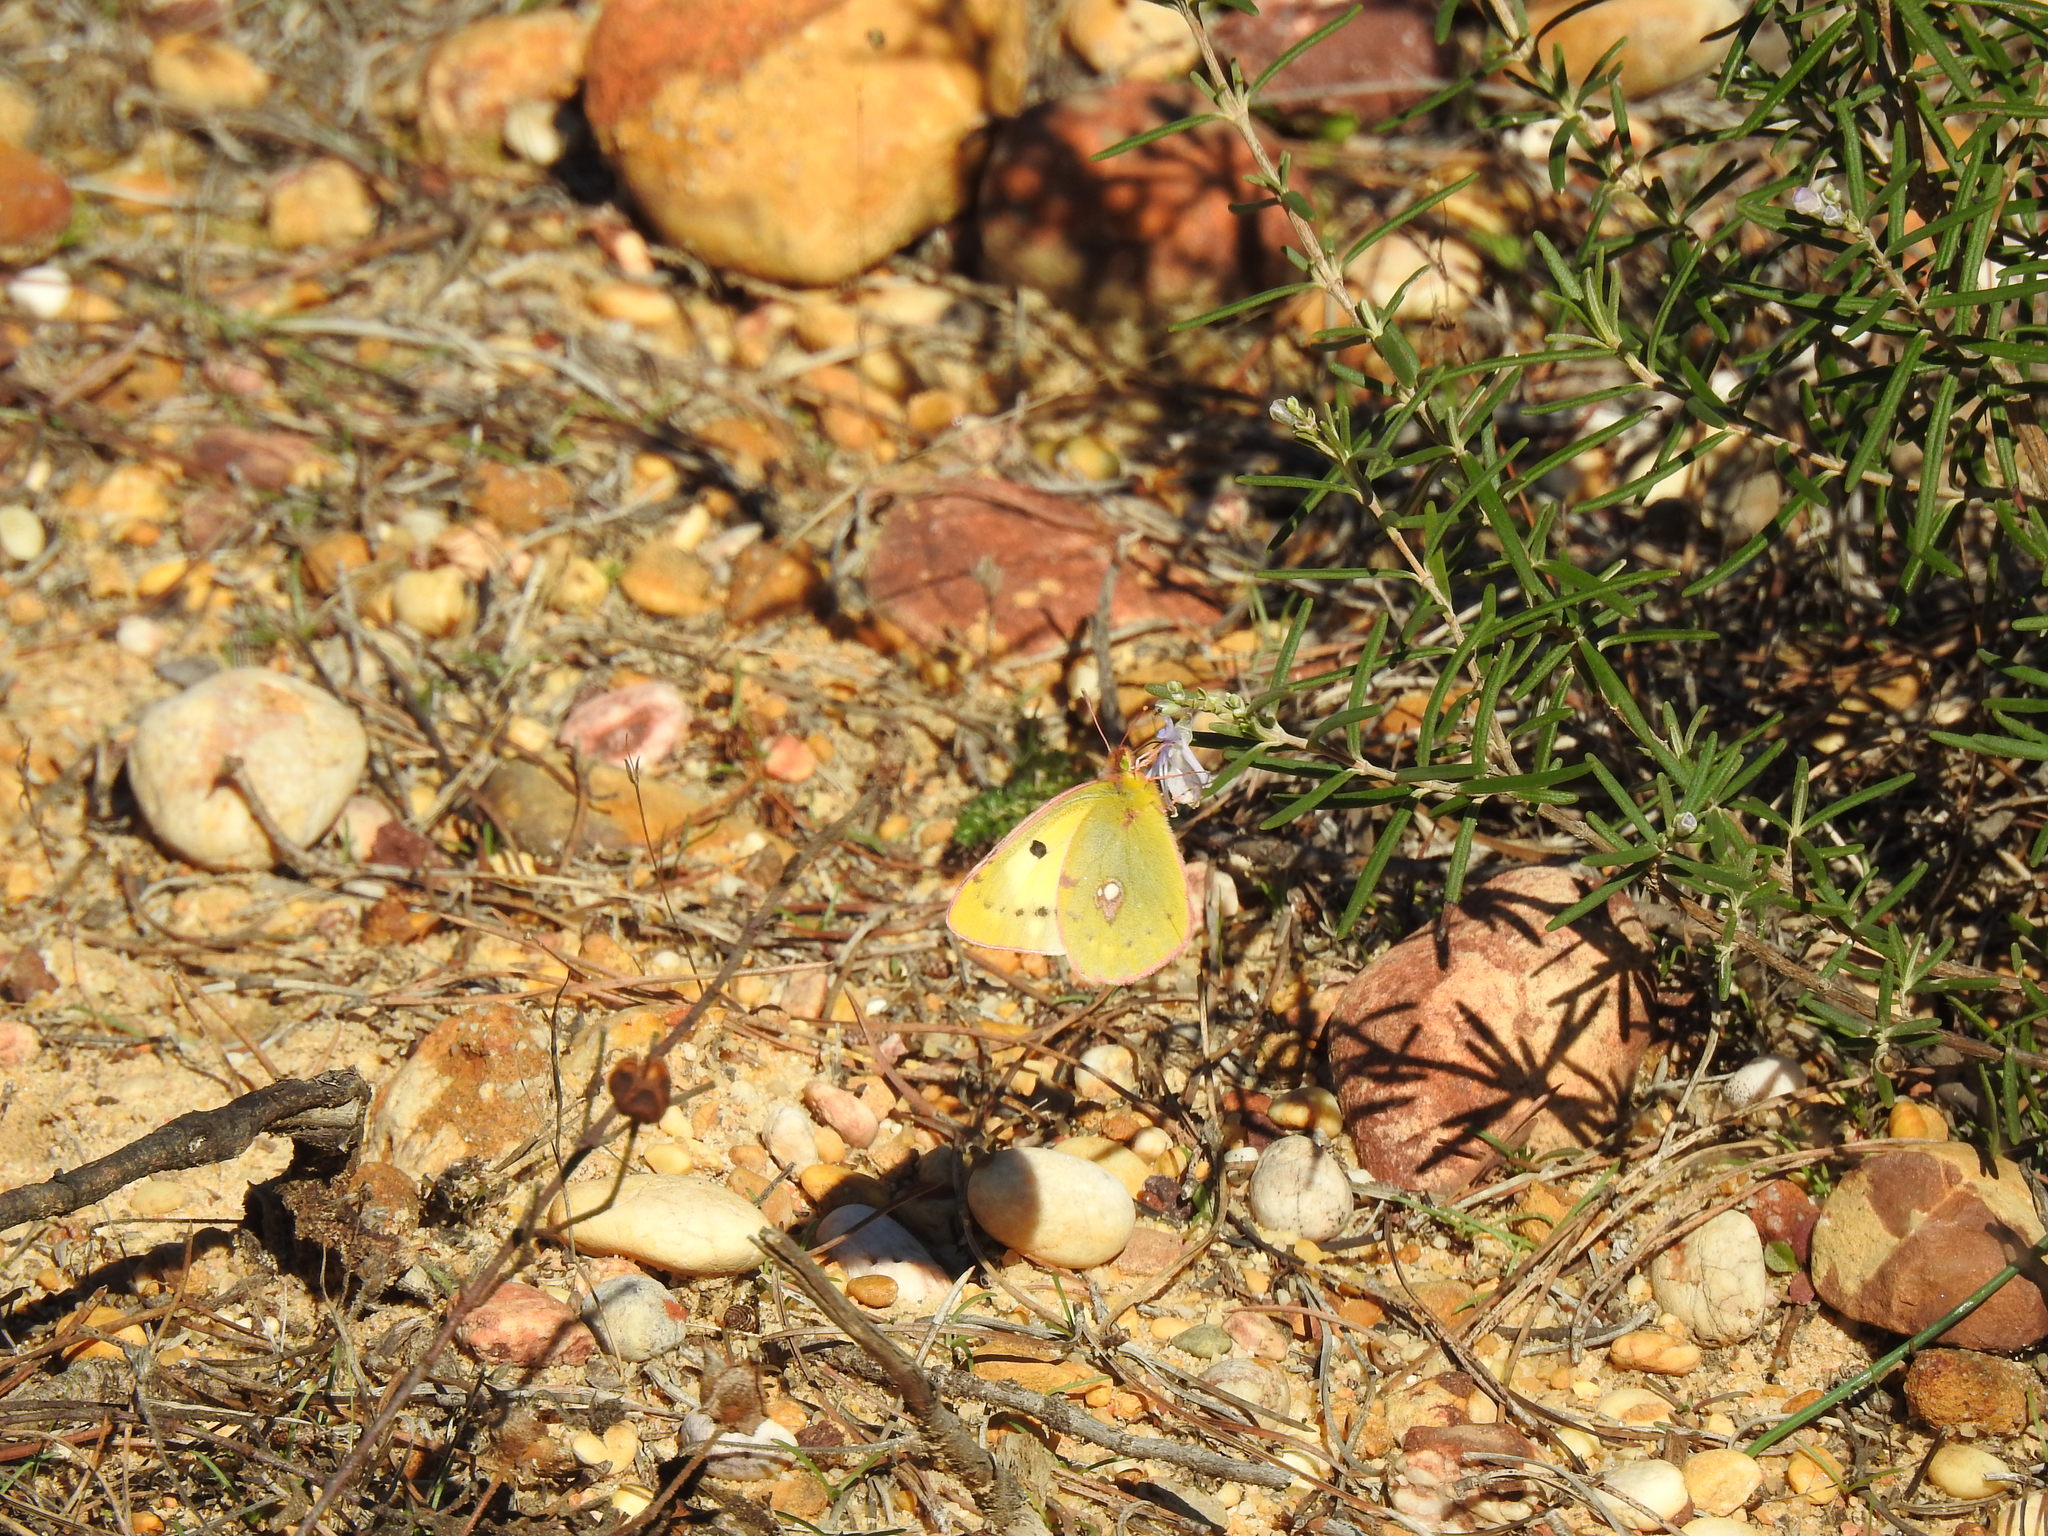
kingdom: Animalia
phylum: Arthropoda
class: Insecta
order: Lepidoptera
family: Pieridae
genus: Colias
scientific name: Colias croceus
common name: Clouded yellow
